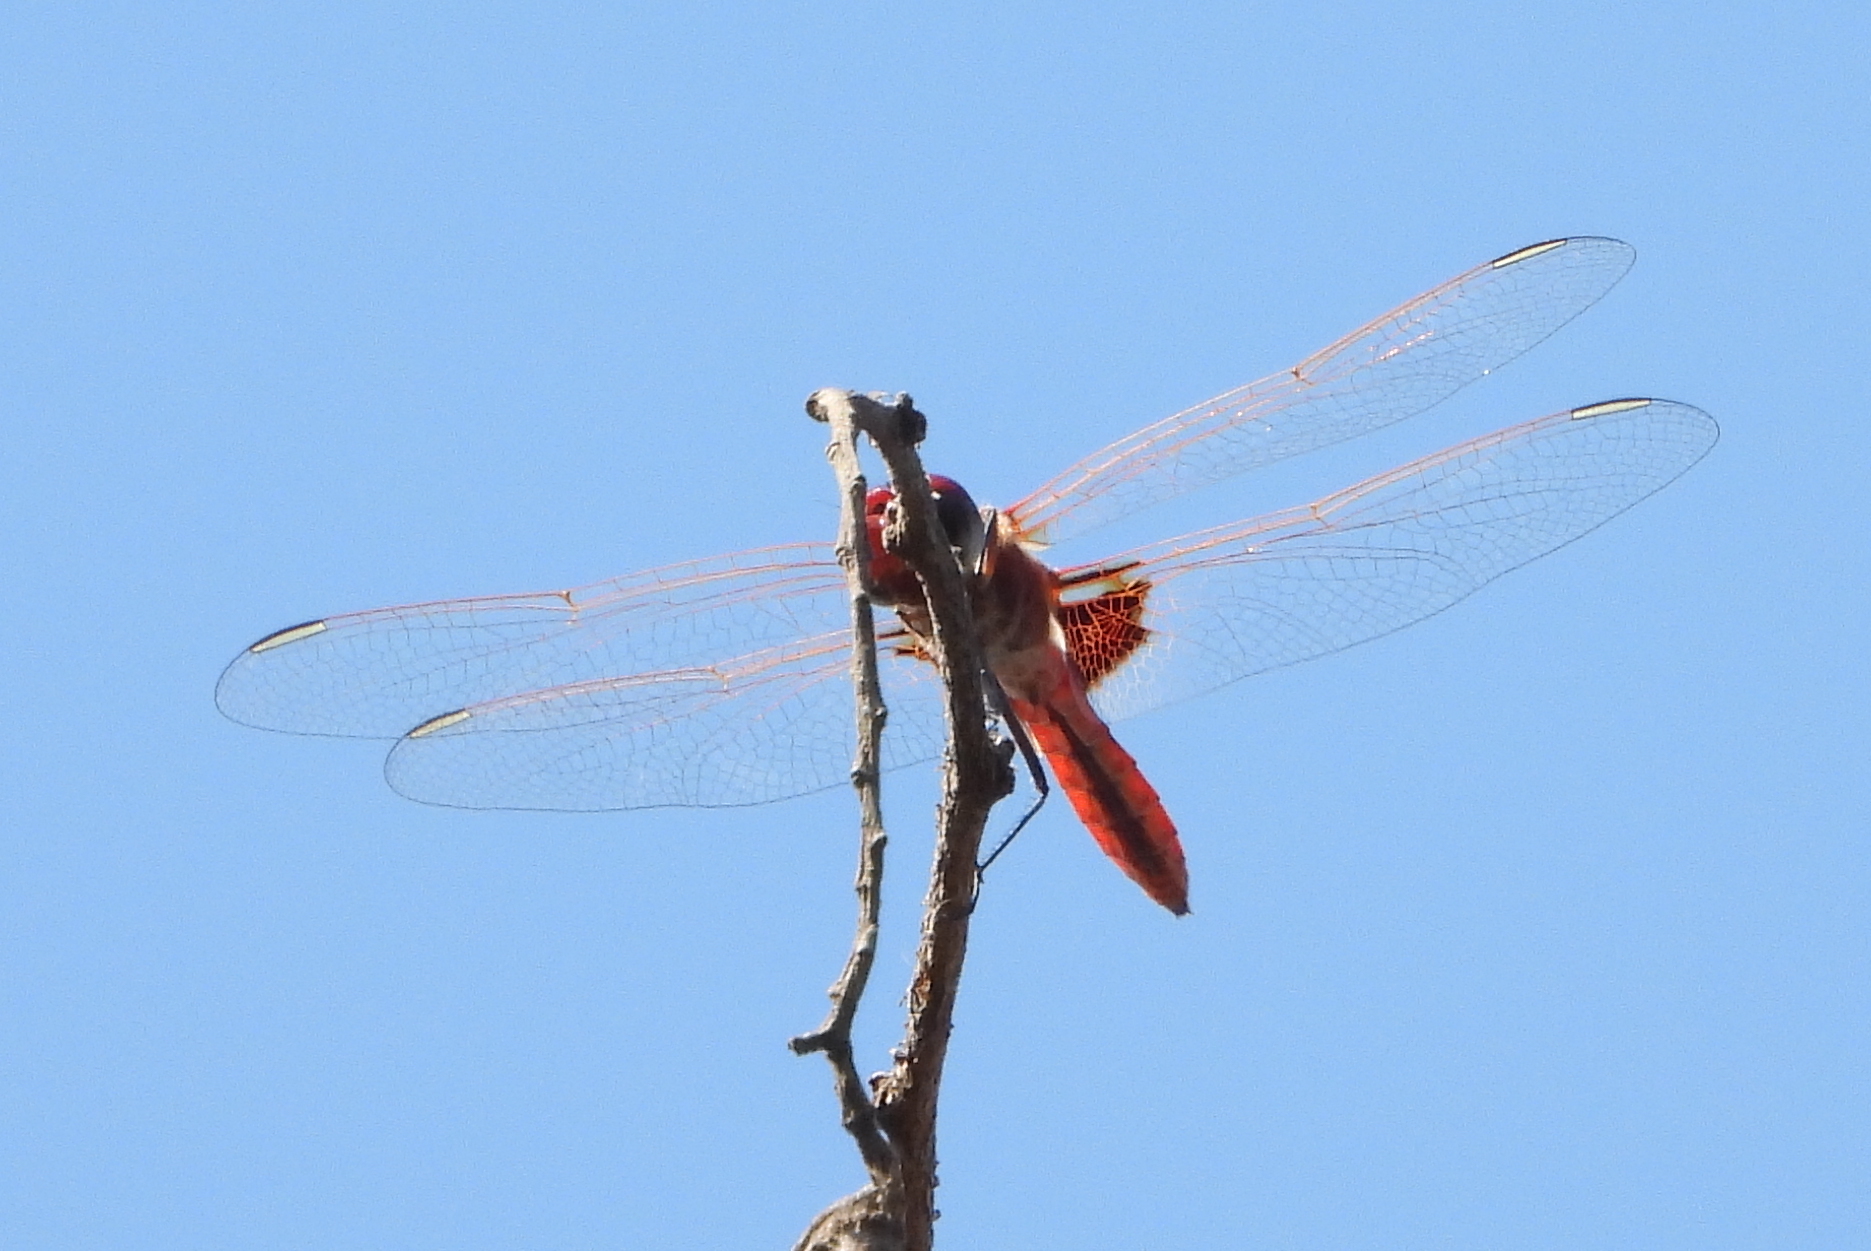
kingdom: Animalia
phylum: Arthropoda
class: Insecta
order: Odonata
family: Libellulidae
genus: Urothemis
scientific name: Urothemis assignata
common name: Red basker
